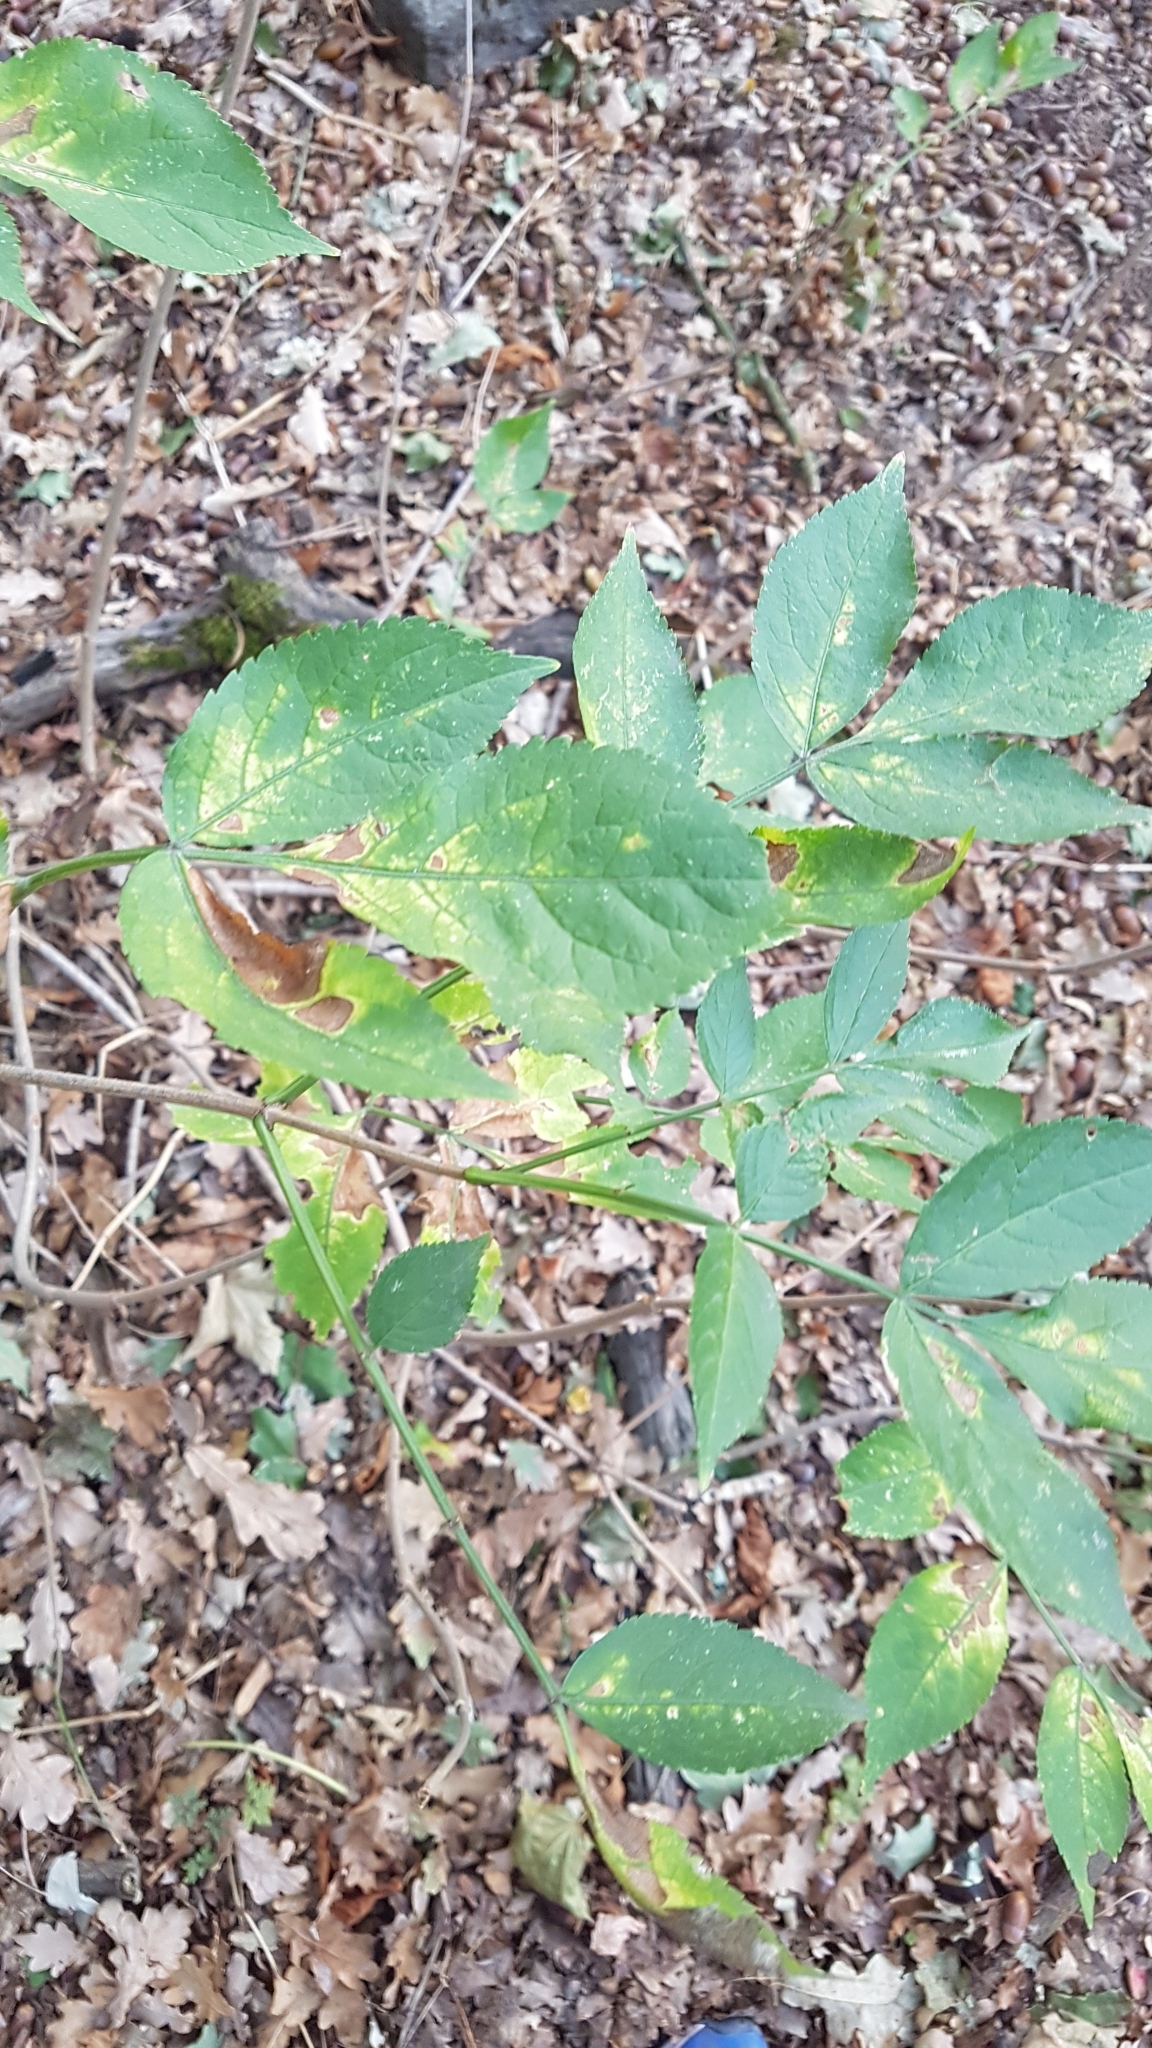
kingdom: Plantae
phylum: Tracheophyta
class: Magnoliopsida
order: Dipsacales
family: Viburnaceae
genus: Sambucus
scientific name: Sambucus nigra
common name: Elder
